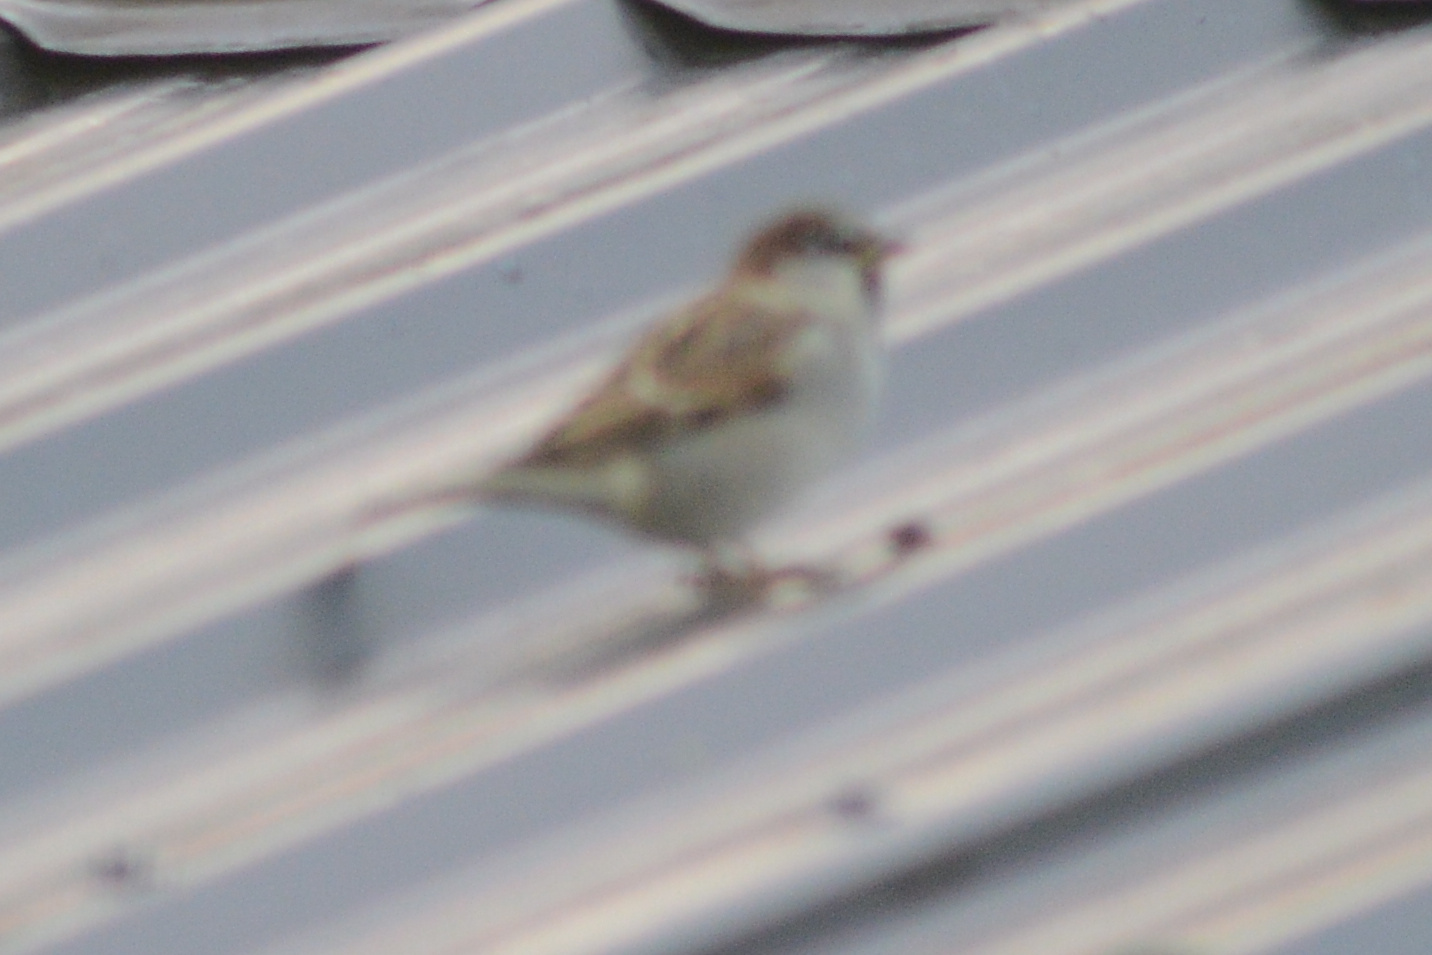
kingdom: Animalia
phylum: Chordata
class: Aves
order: Passeriformes
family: Passeridae
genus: Passer
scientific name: Passer domesticus
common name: House sparrow
